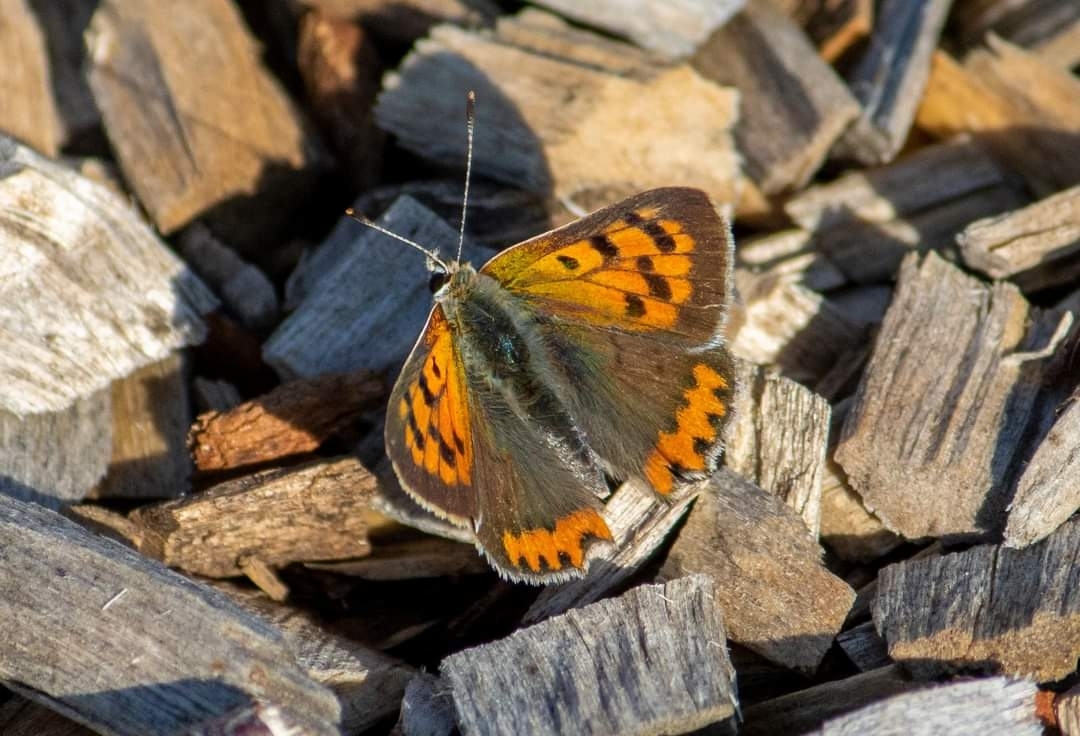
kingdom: Animalia
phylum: Arthropoda
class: Insecta
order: Lepidoptera
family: Lycaenidae
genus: Lycaena
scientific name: Lycaena phlaeas
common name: Small copper
